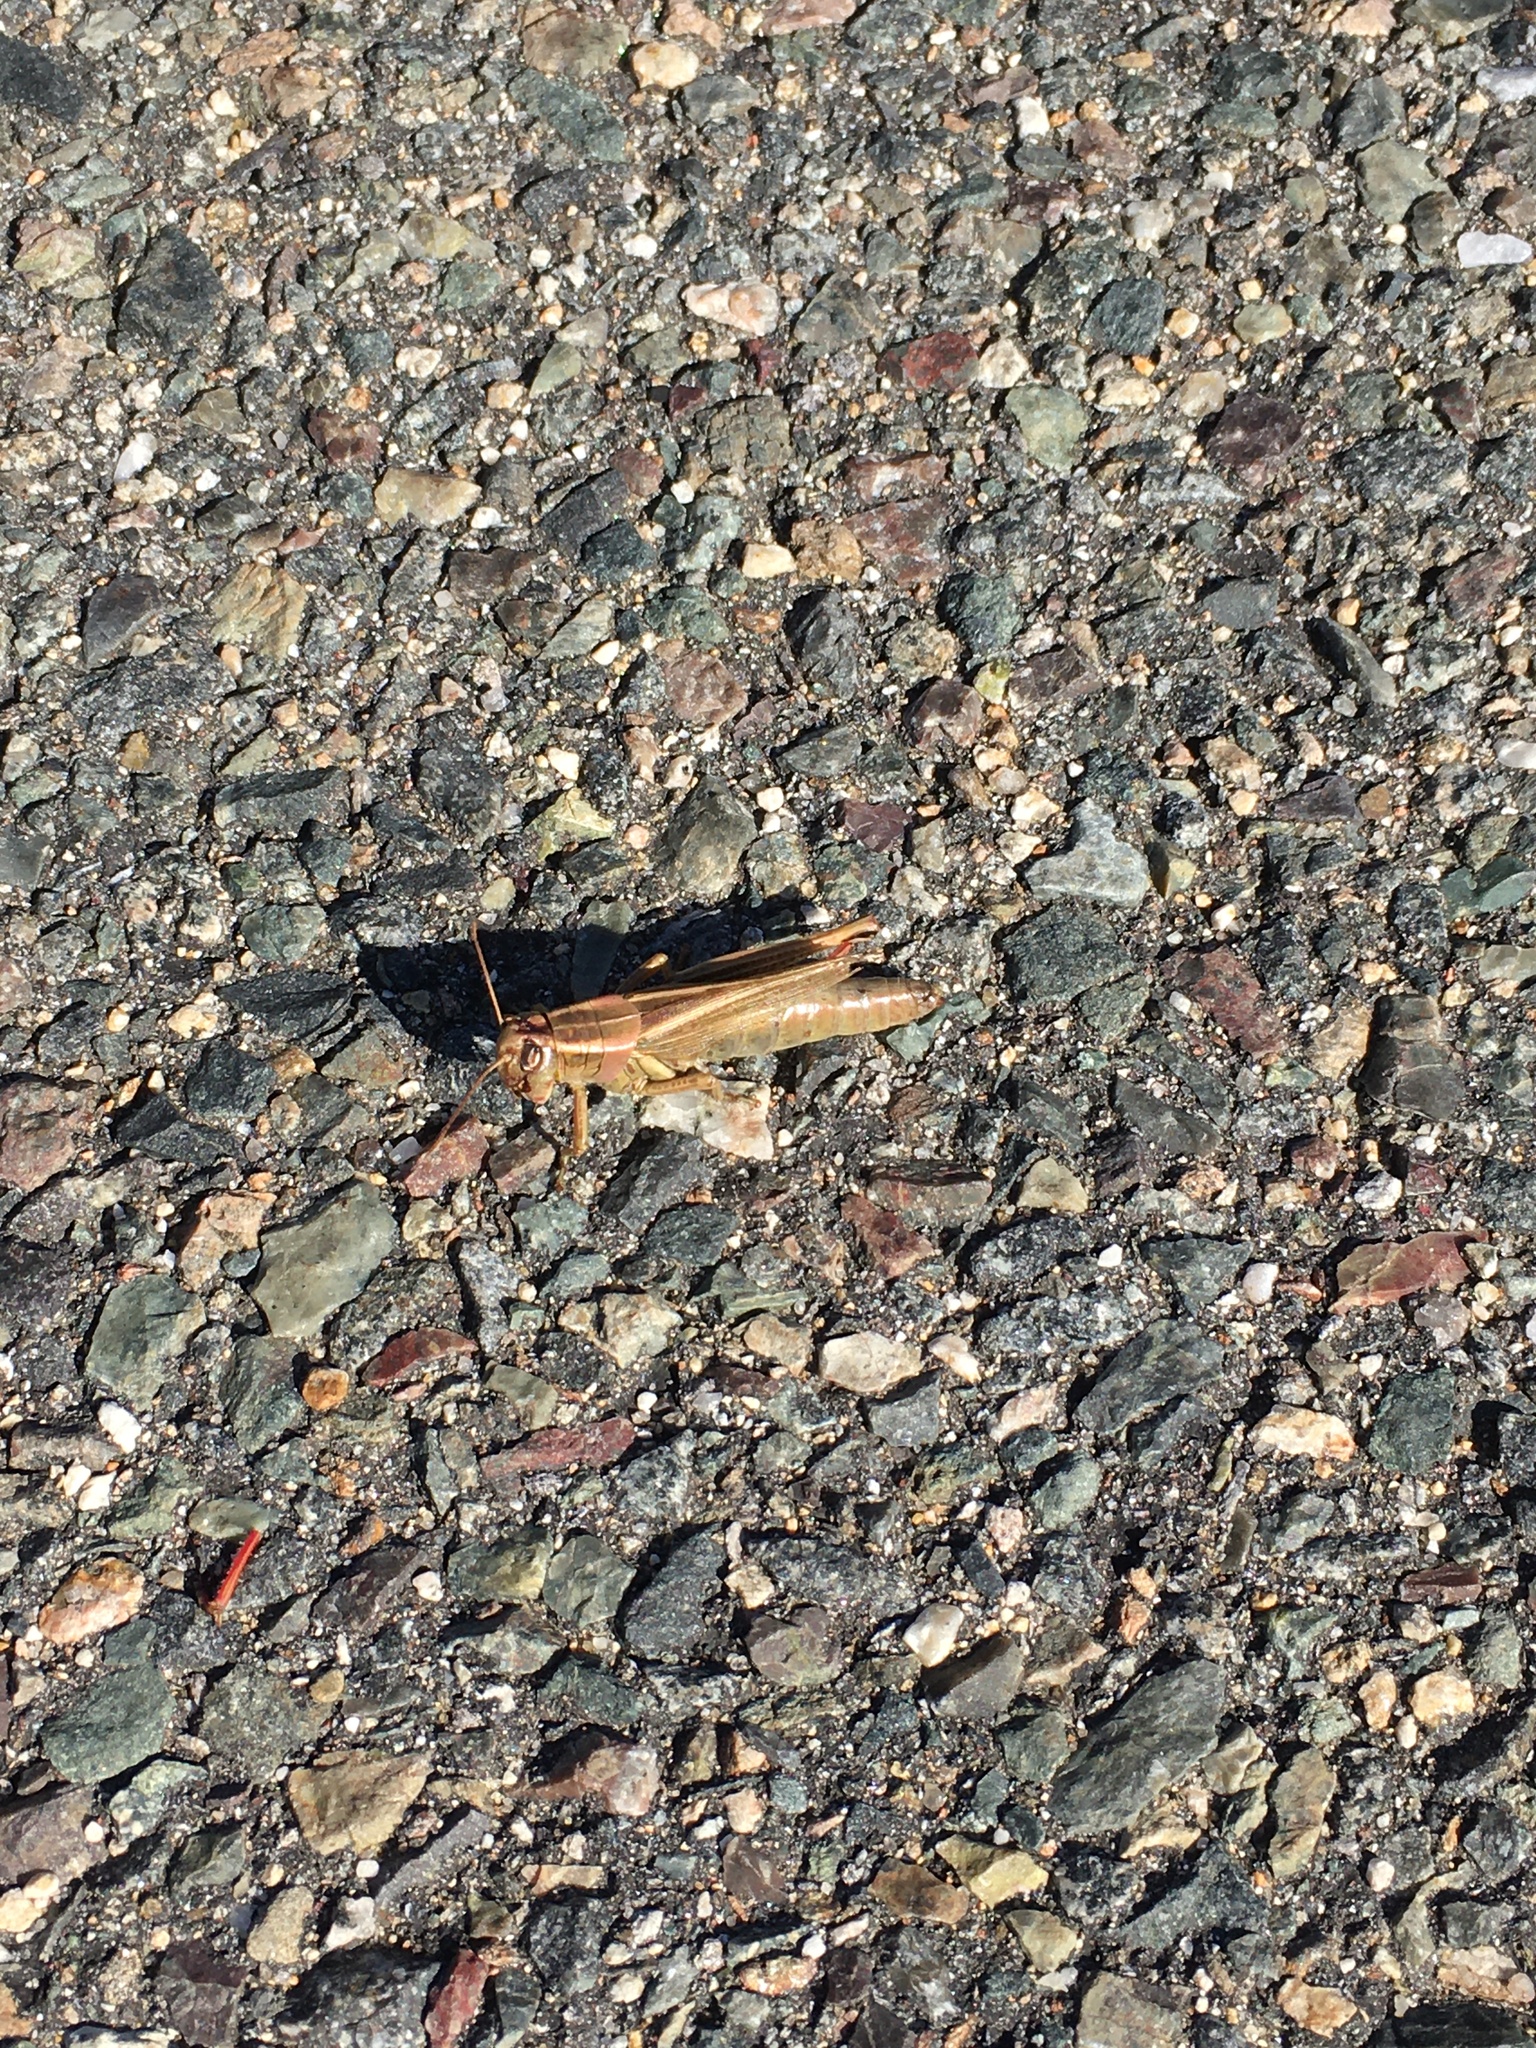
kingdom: Animalia
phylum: Arthropoda
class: Insecta
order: Orthoptera
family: Acrididae
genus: Melanoplus
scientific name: Melanoplus bivittatus
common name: Two-striped grasshopper
